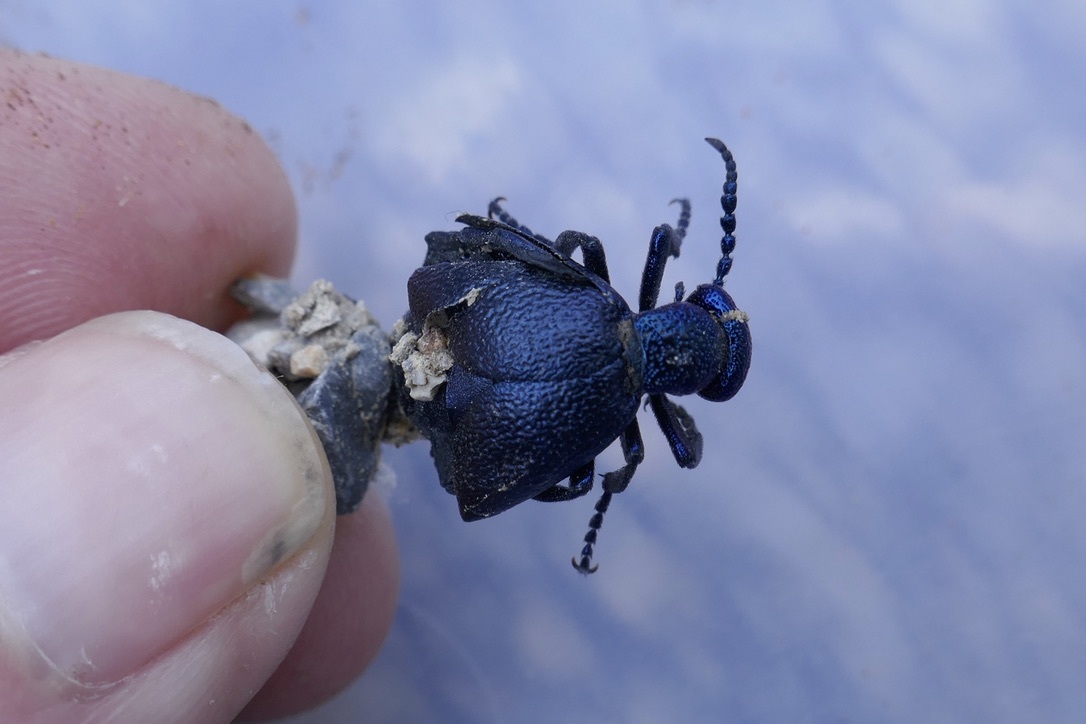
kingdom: Animalia
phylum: Arthropoda
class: Insecta
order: Coleoptera
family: Meloidae
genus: Meloe
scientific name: Meloe proscarabaeus
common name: Black oil-beetle
